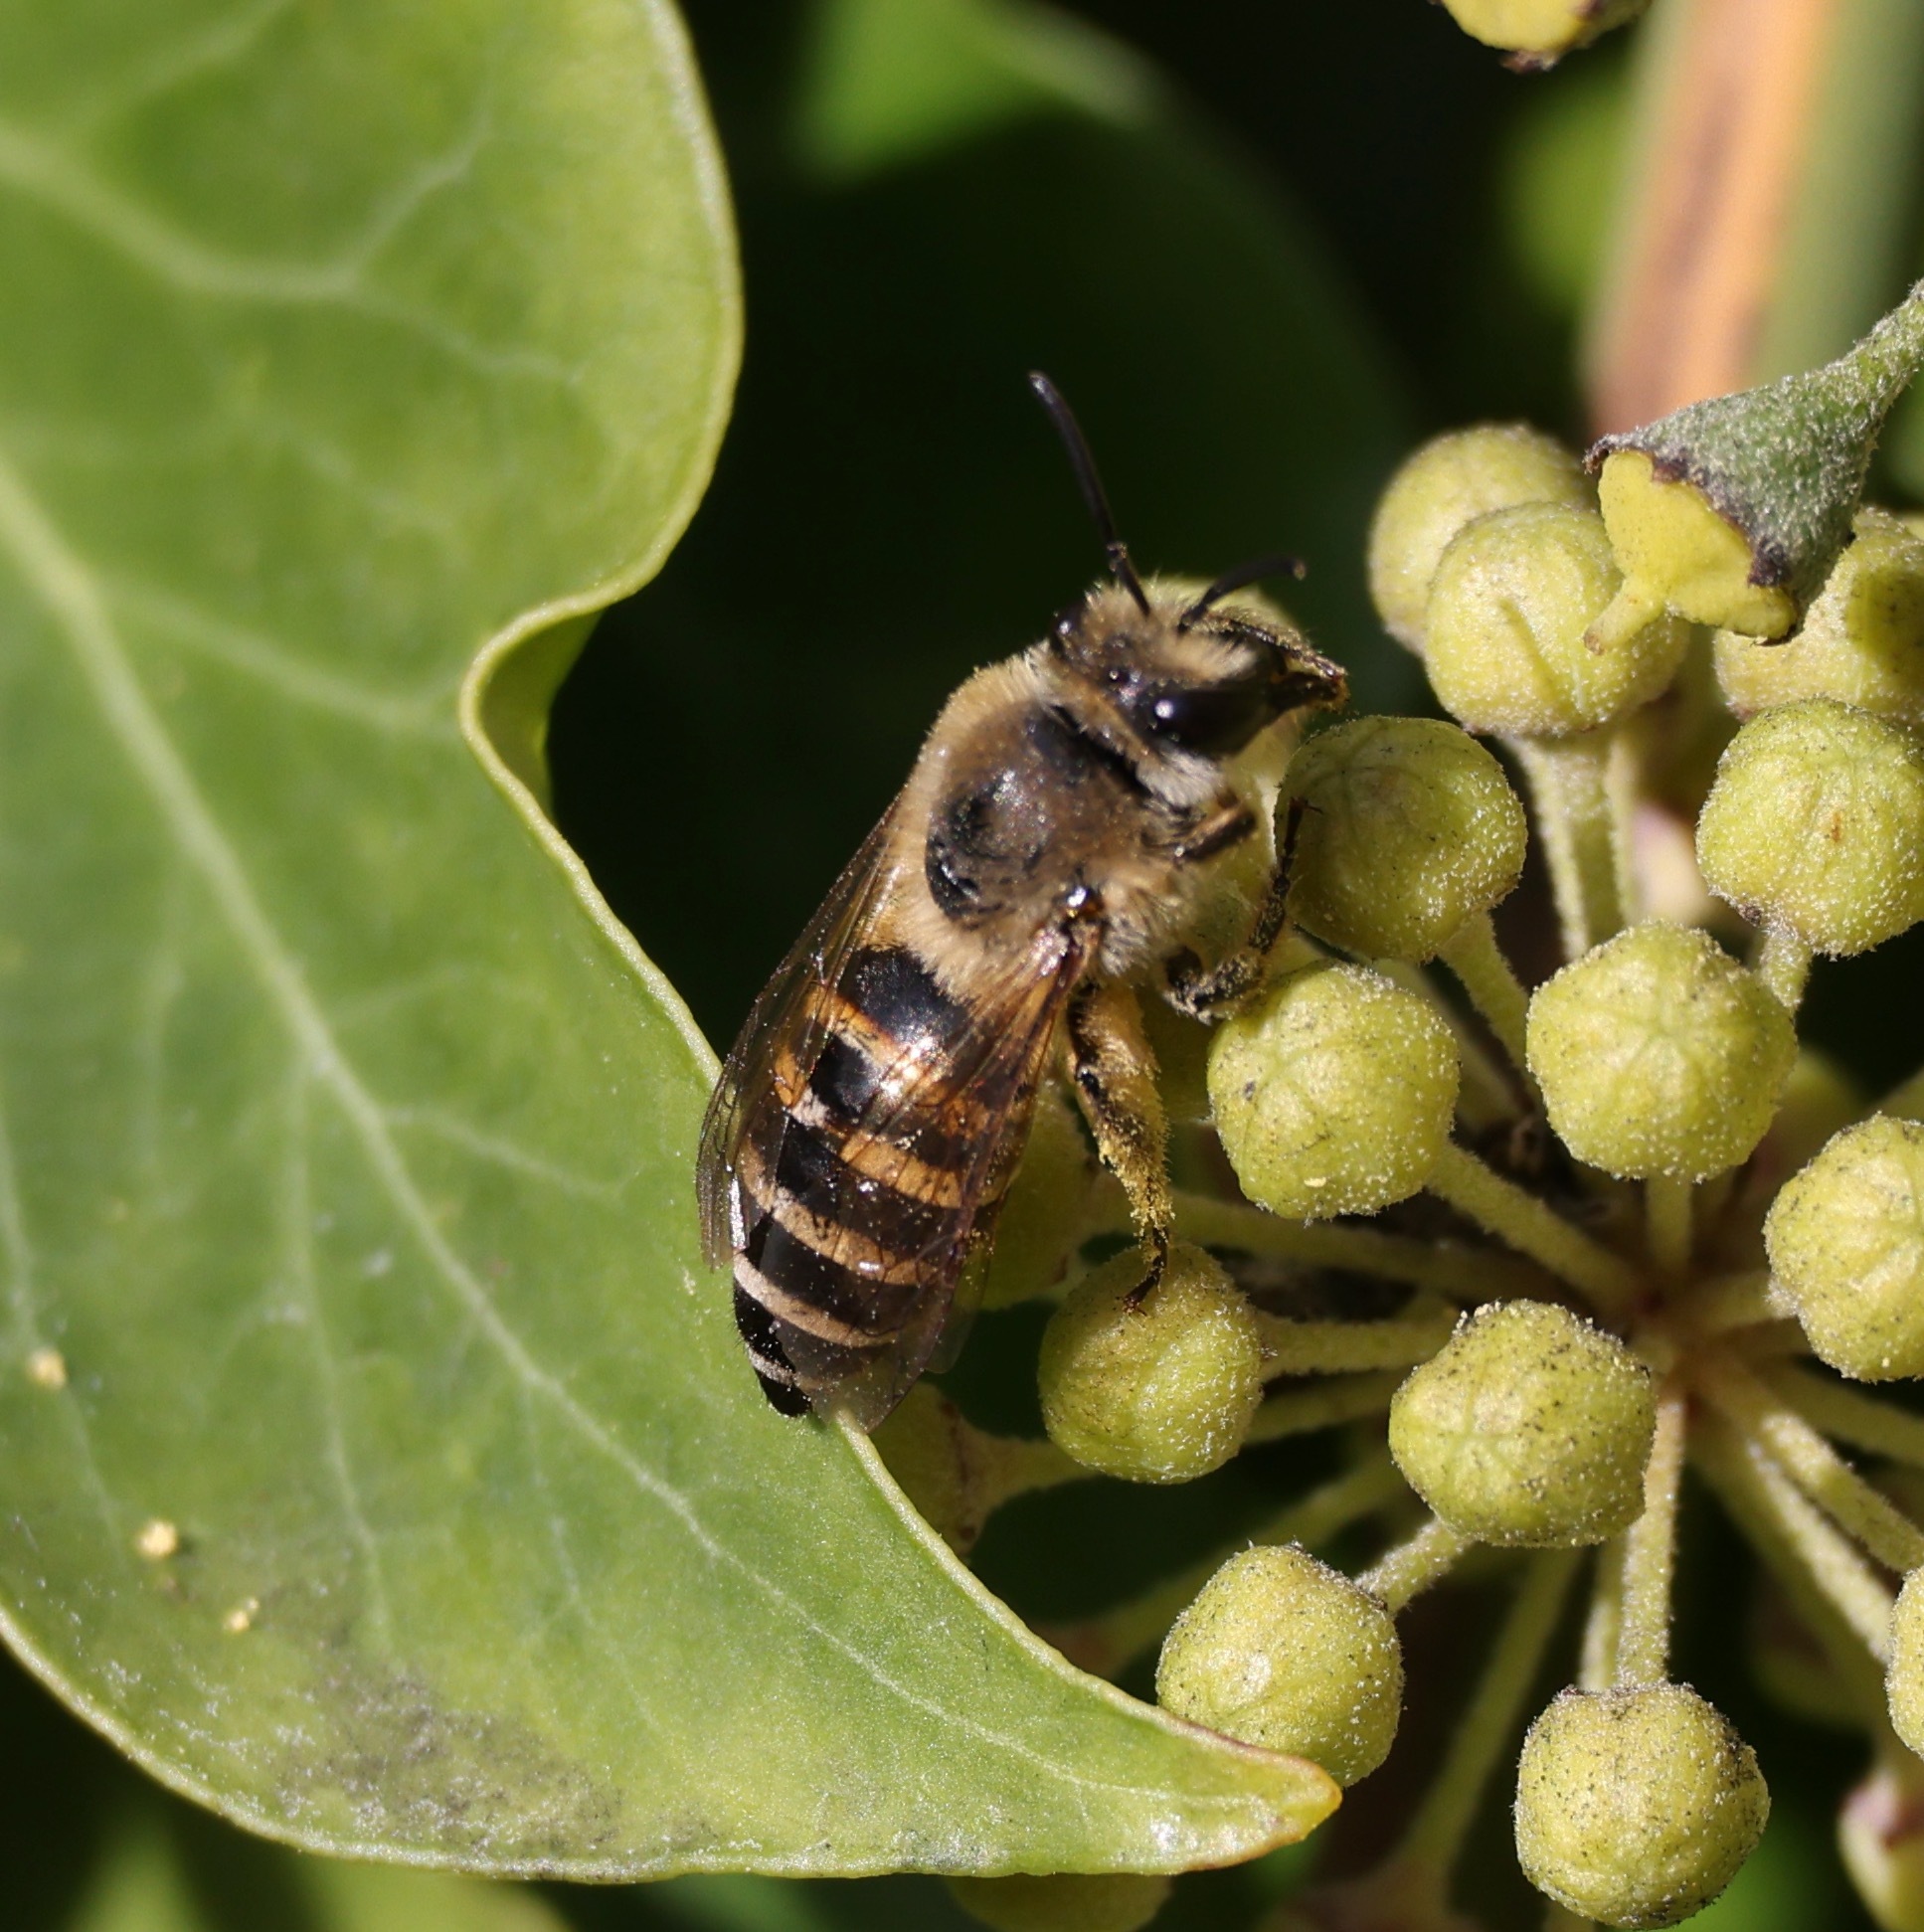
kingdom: Animalia
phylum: Arthropoda
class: Insecta
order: Hymenoptera
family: Colletidae
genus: Colletes
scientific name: Colletes hederae
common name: Ivy bee
